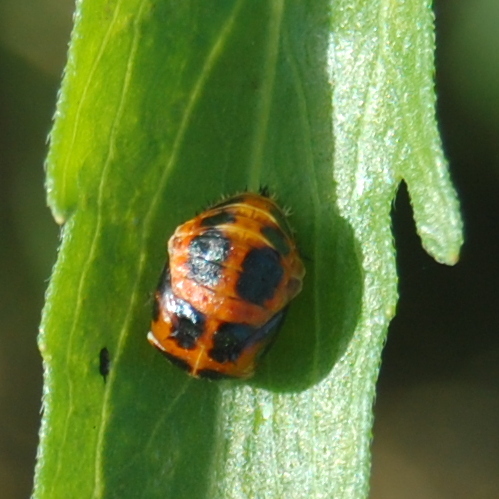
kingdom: Animalia
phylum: Arthropoda
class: Insecta
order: Coleoptera
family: Coccinellidae
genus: Harmonia
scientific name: Harmonia axyridis
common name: Harlequin ladybird
